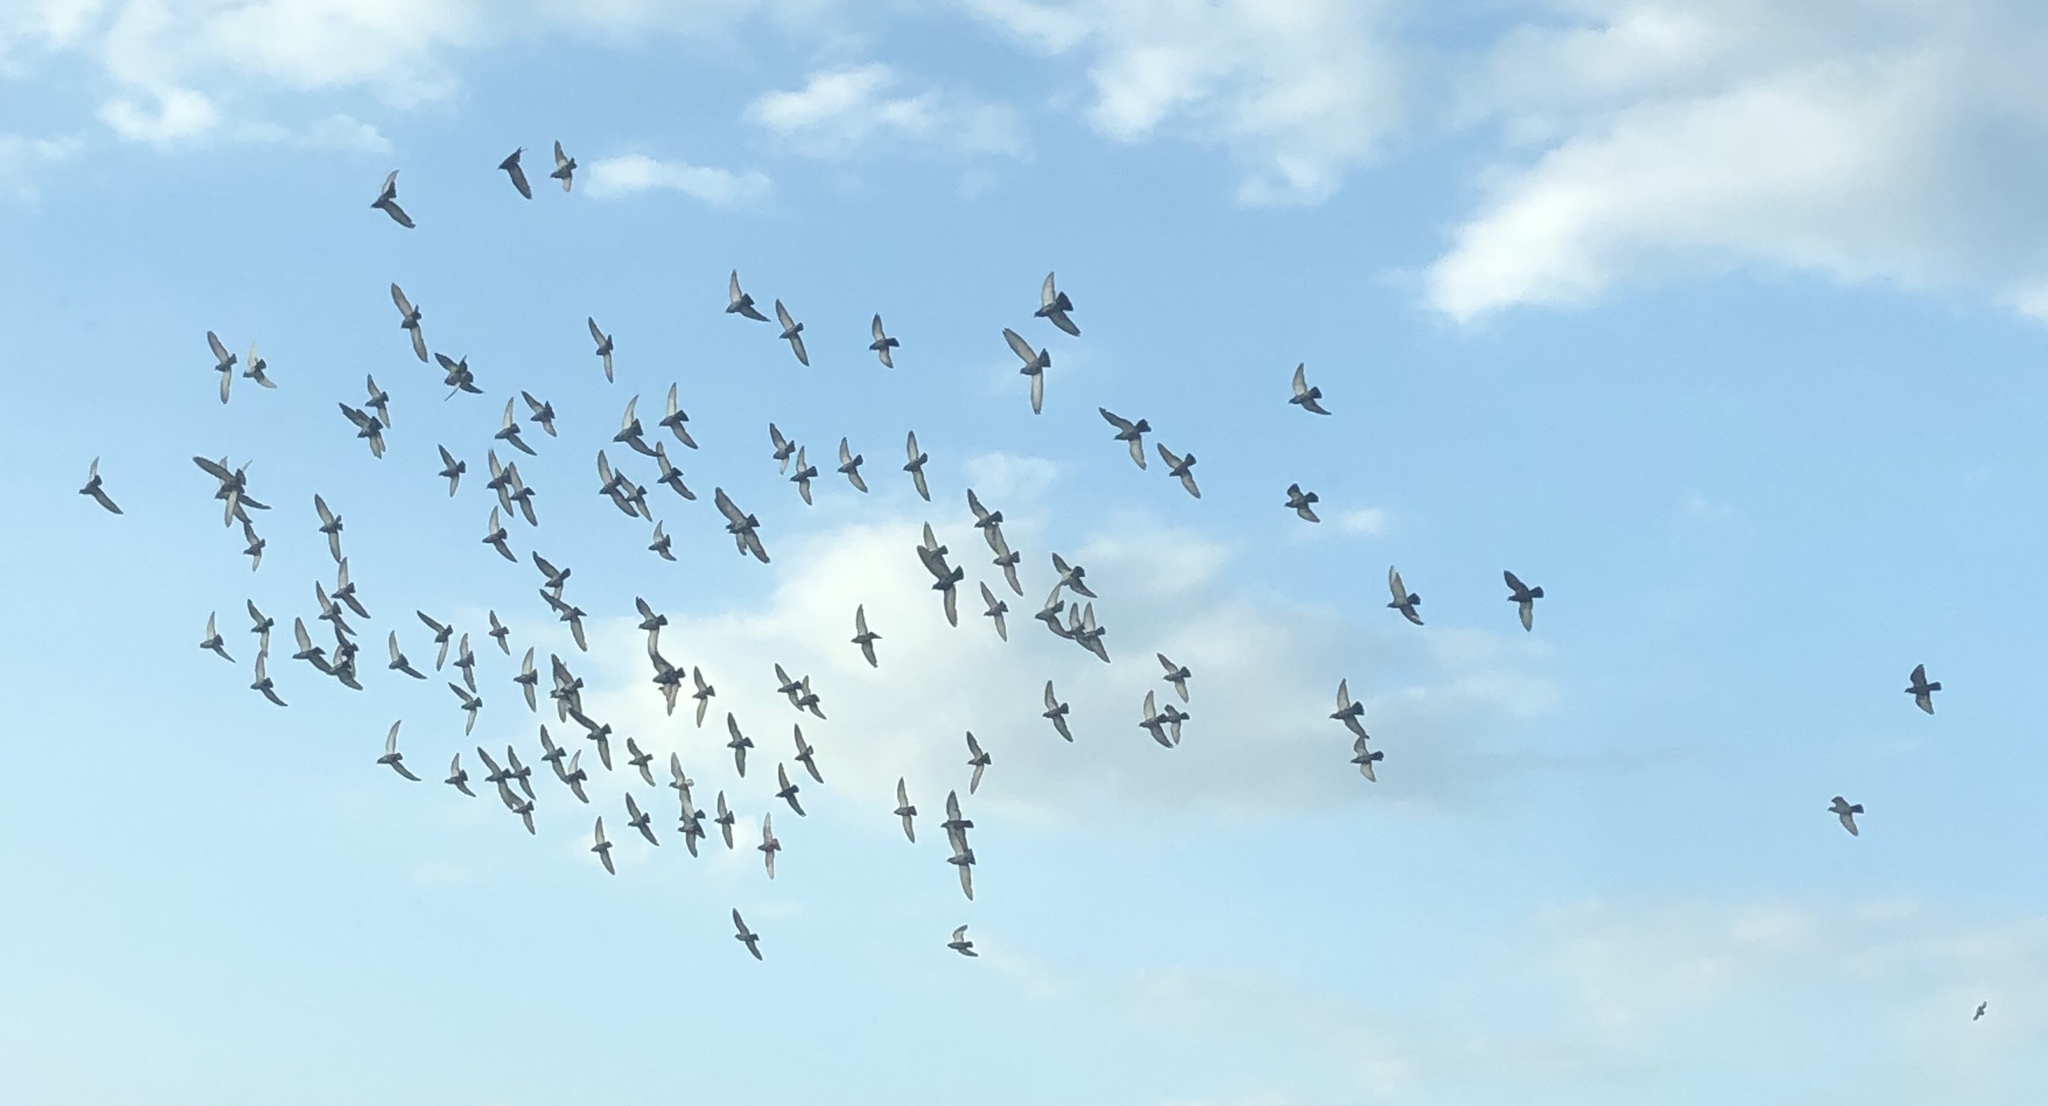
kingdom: Animalia
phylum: Chordata
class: Aves
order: Columbiformes
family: Columbidae
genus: Columba
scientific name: Columba livia
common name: Rock pigeon
